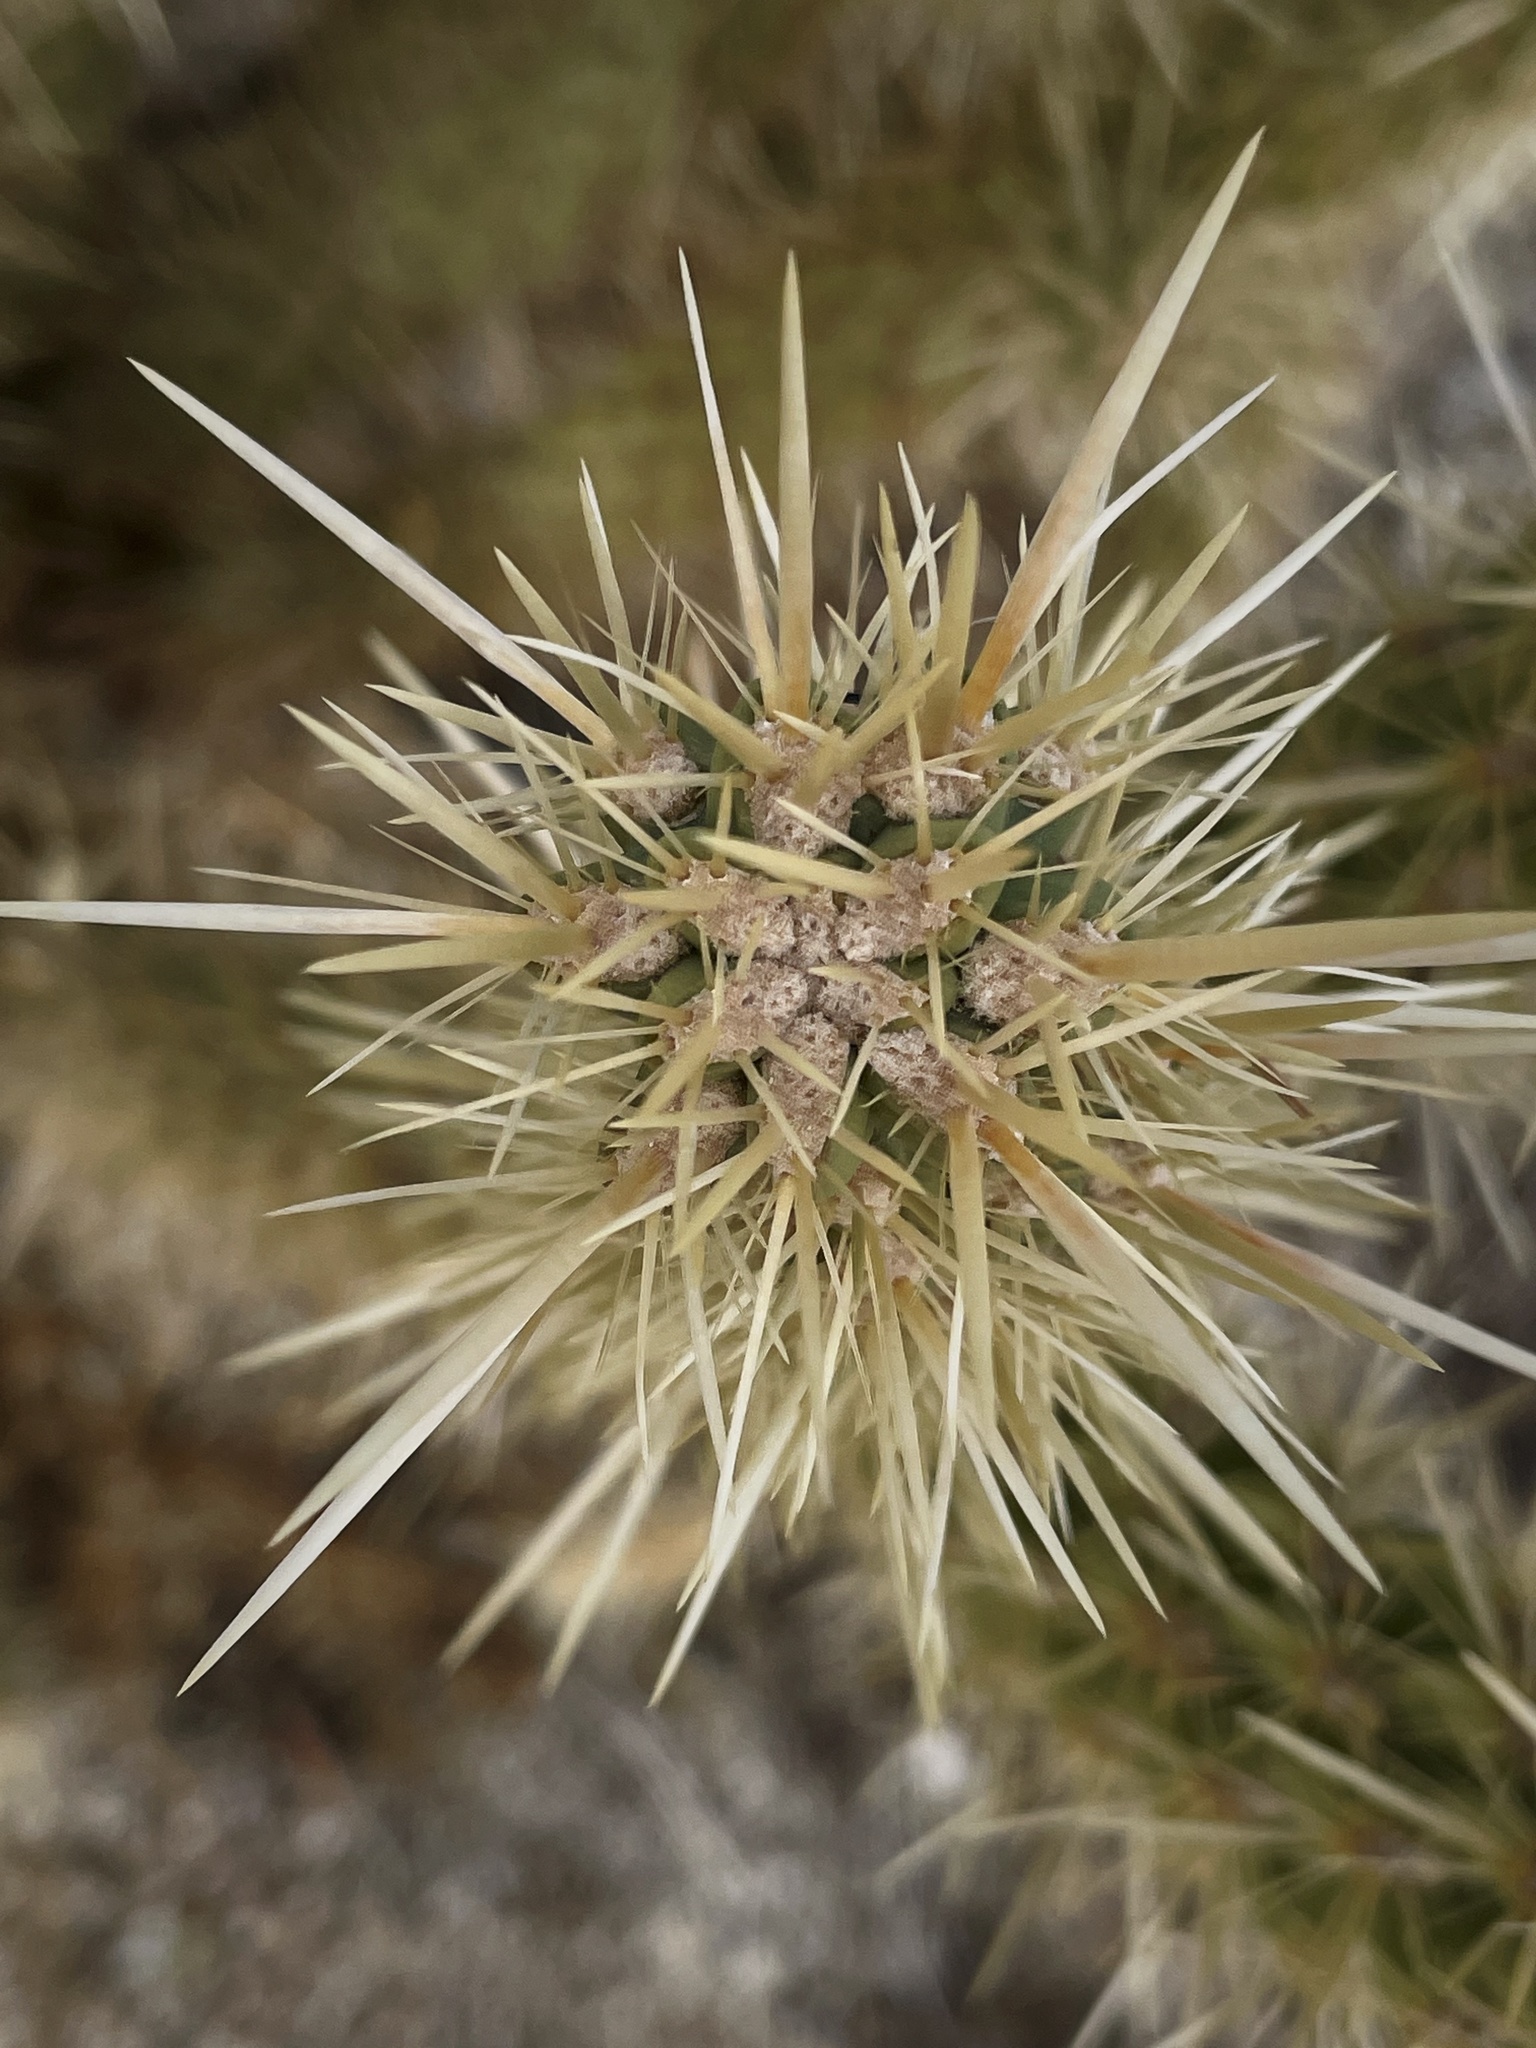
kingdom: Plantae
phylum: Tracheophyta
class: Magnoliopsida
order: Caryophyllales
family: Cactaceae
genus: Cylindropuntia
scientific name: Cylindropuntia ganderi
